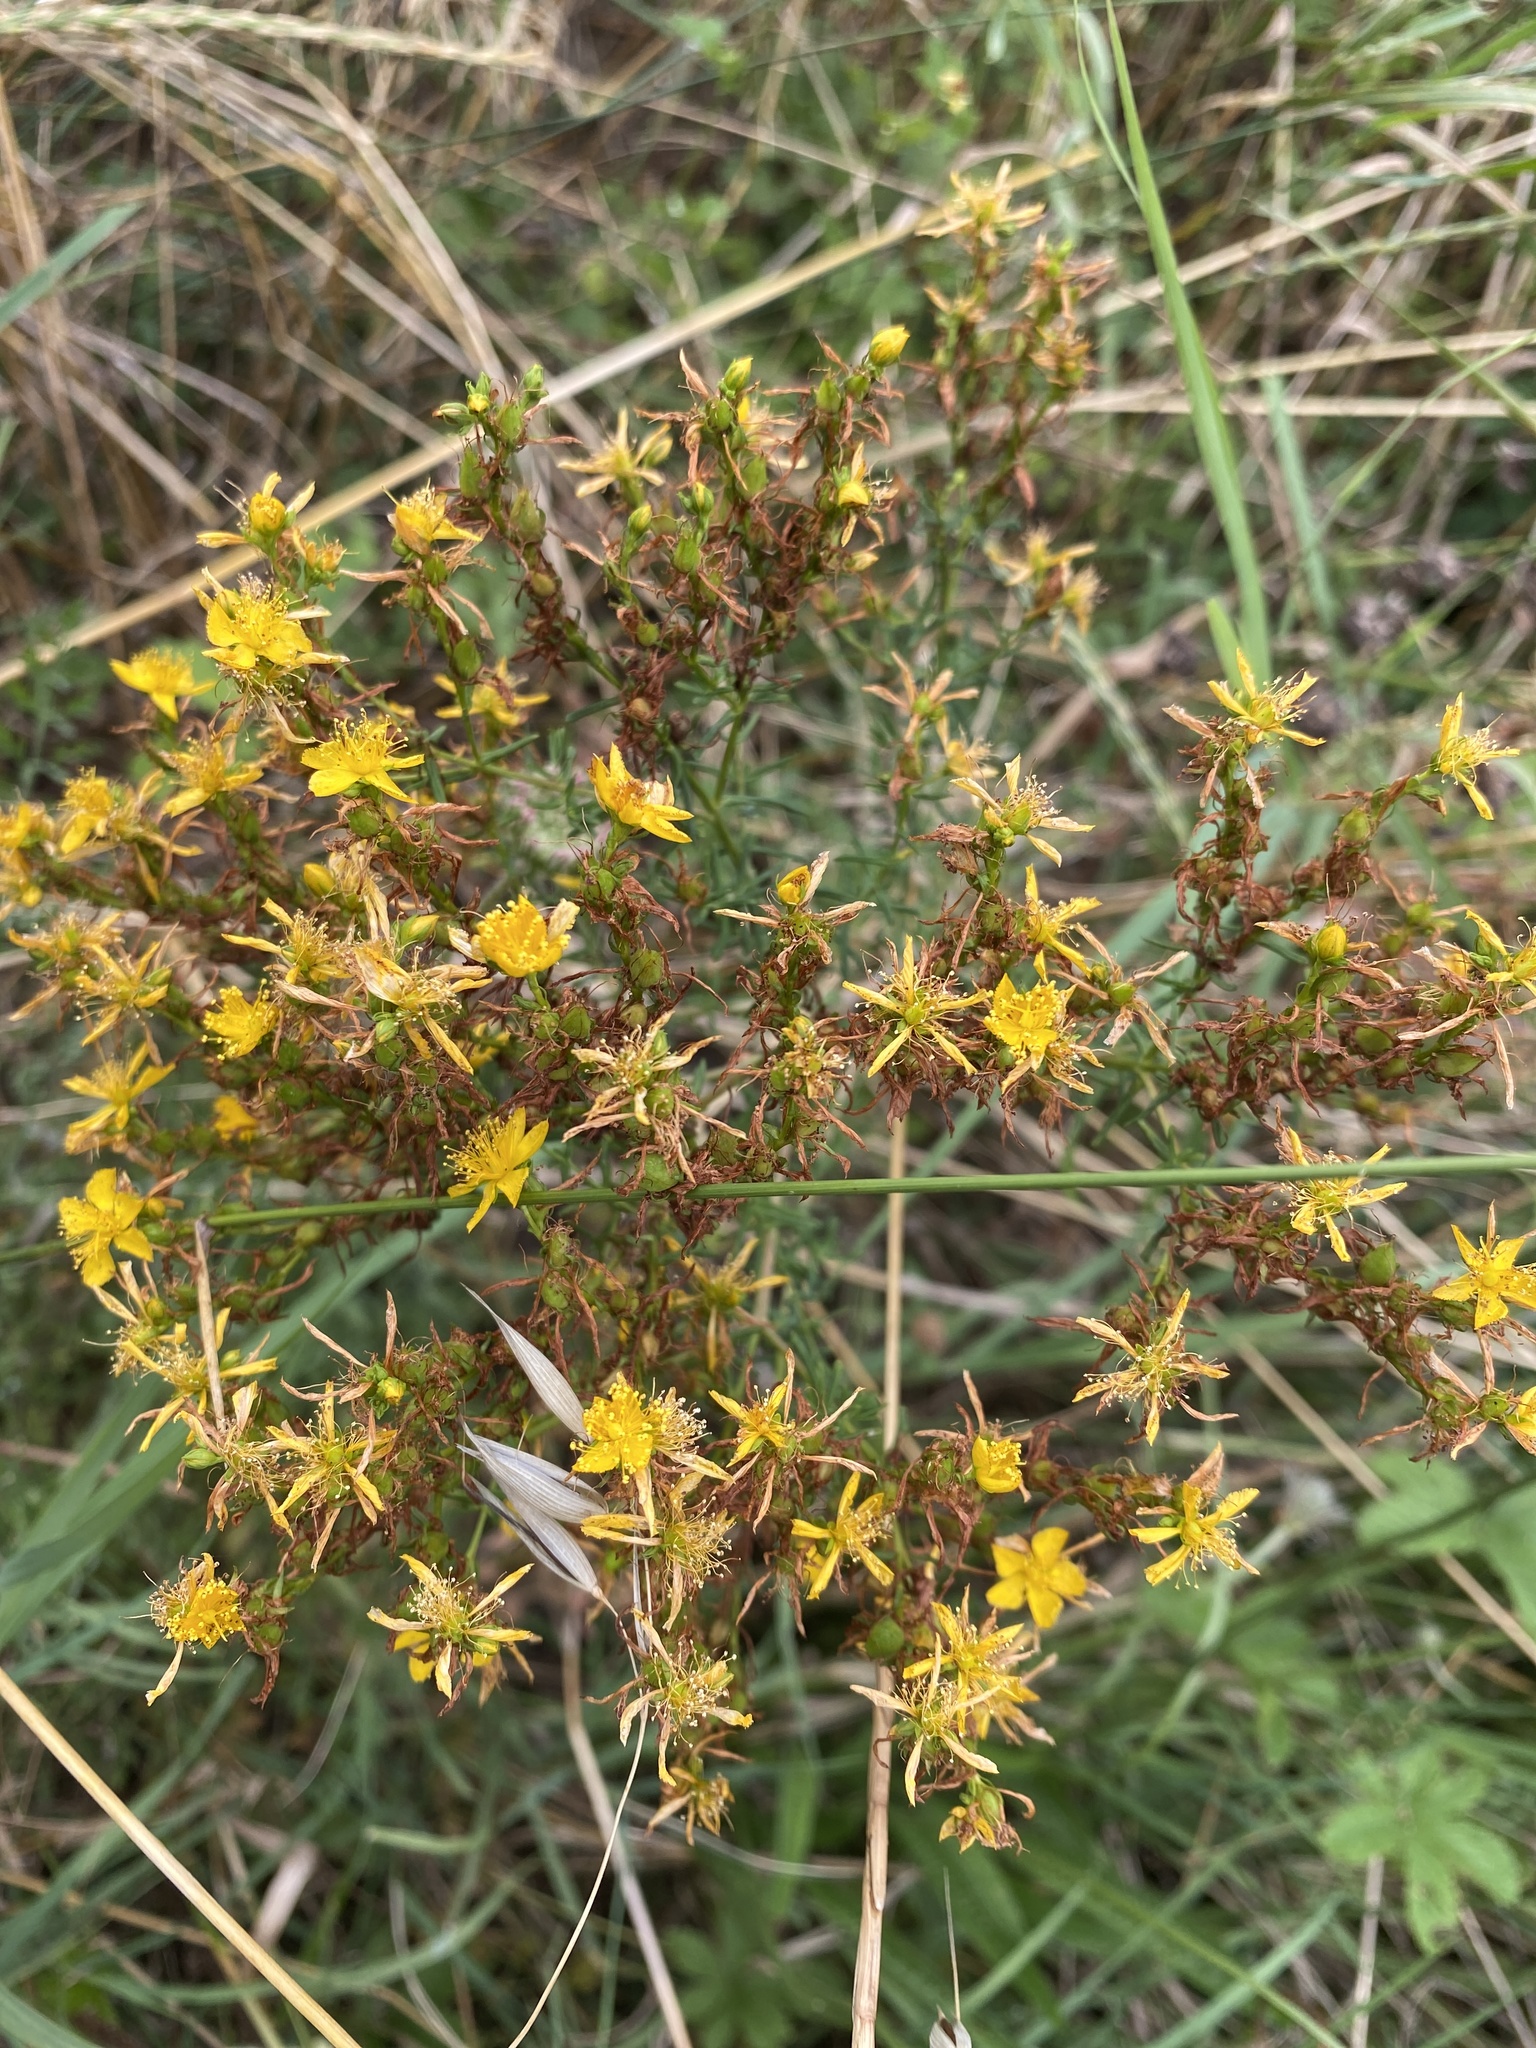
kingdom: Plantae
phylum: Tracheophyta
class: Magnoliopsida
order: Malpighiales
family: Hypericaceae
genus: Hypericum
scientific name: Hypericum perforatum
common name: Common st. johnswort
